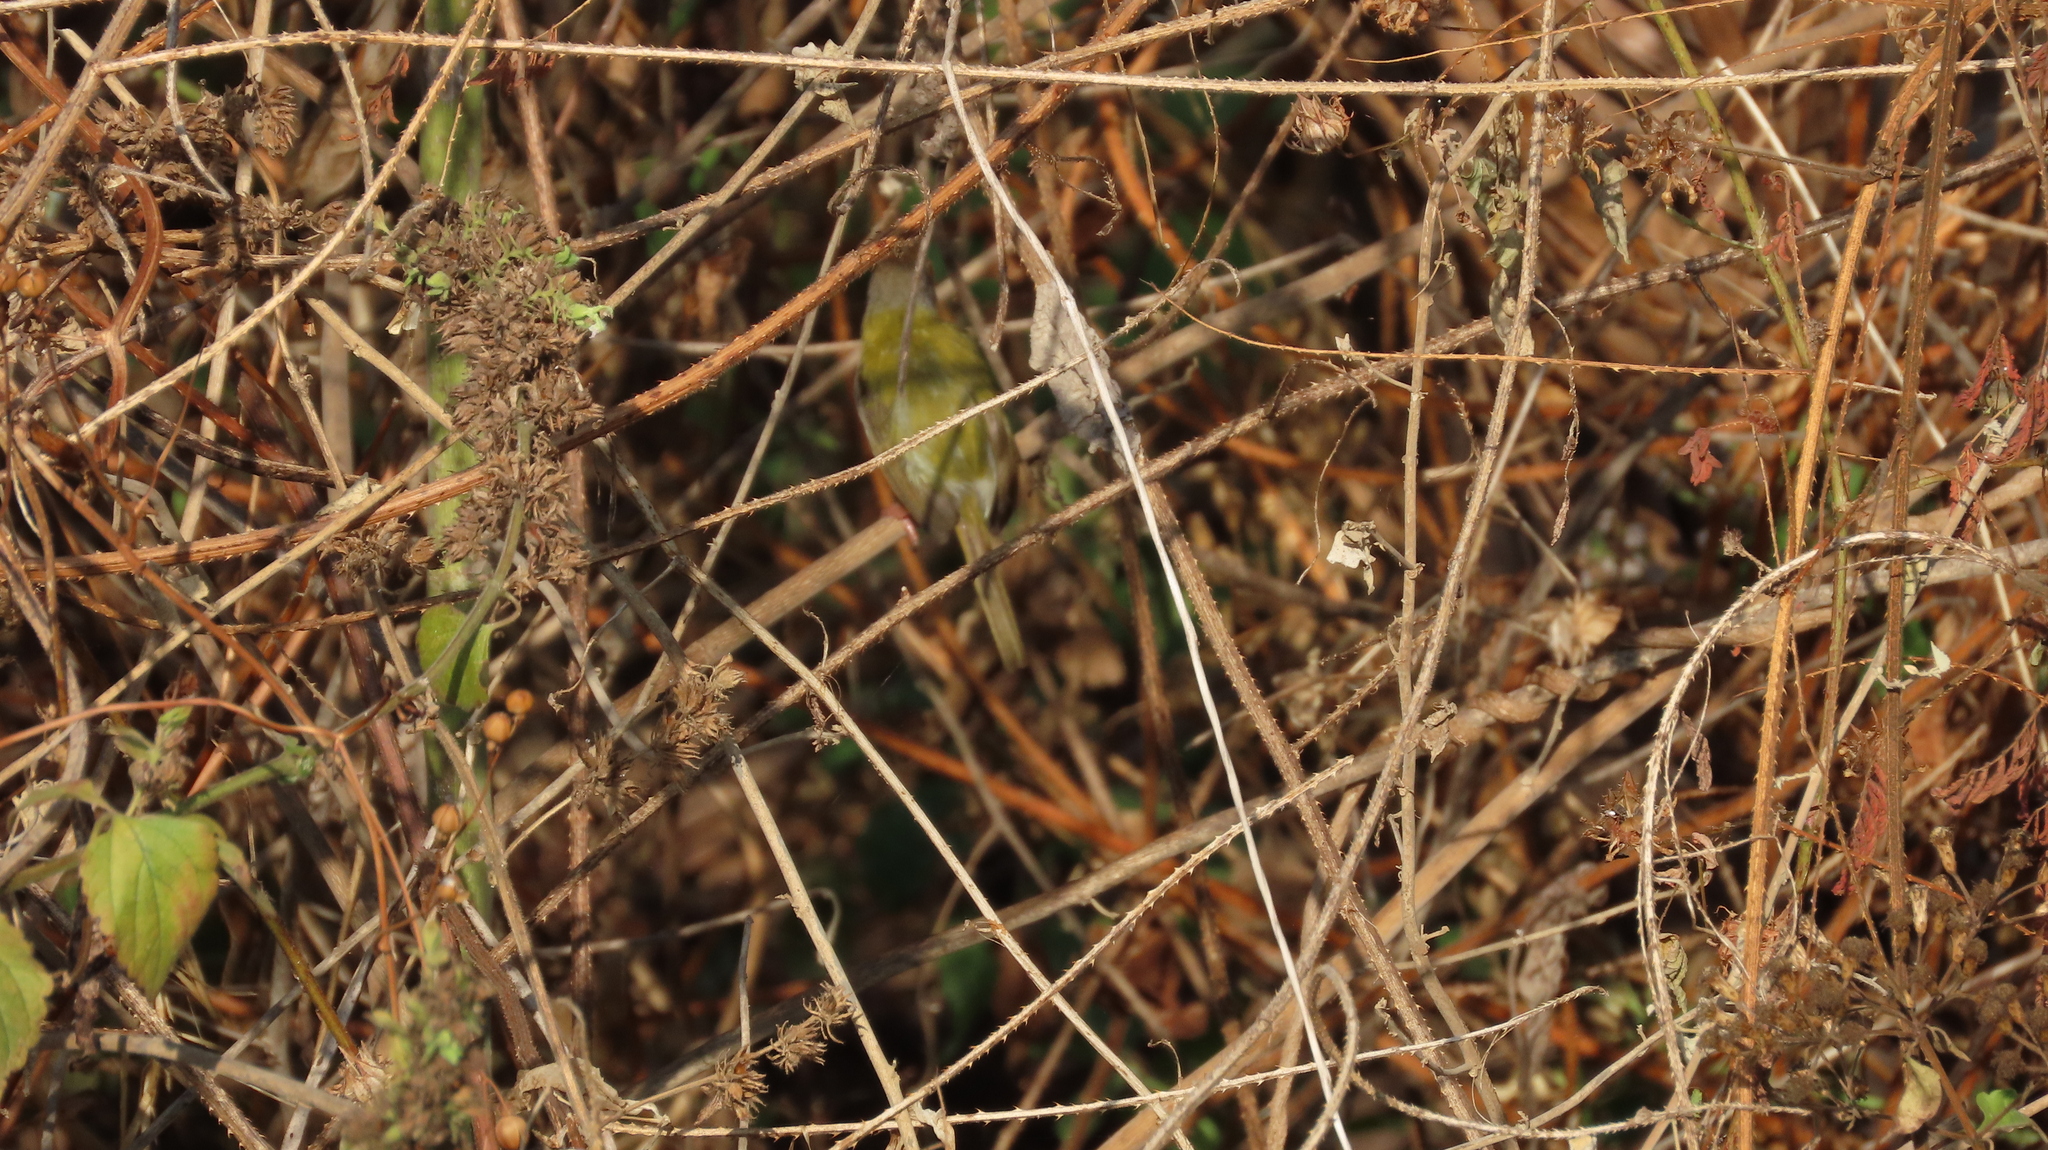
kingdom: Animalia
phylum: Chordata
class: Aves
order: Passeriformes
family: Cisticolidae
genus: Orthotomus
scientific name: Orthotomus sutorius
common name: Common tailorbird
